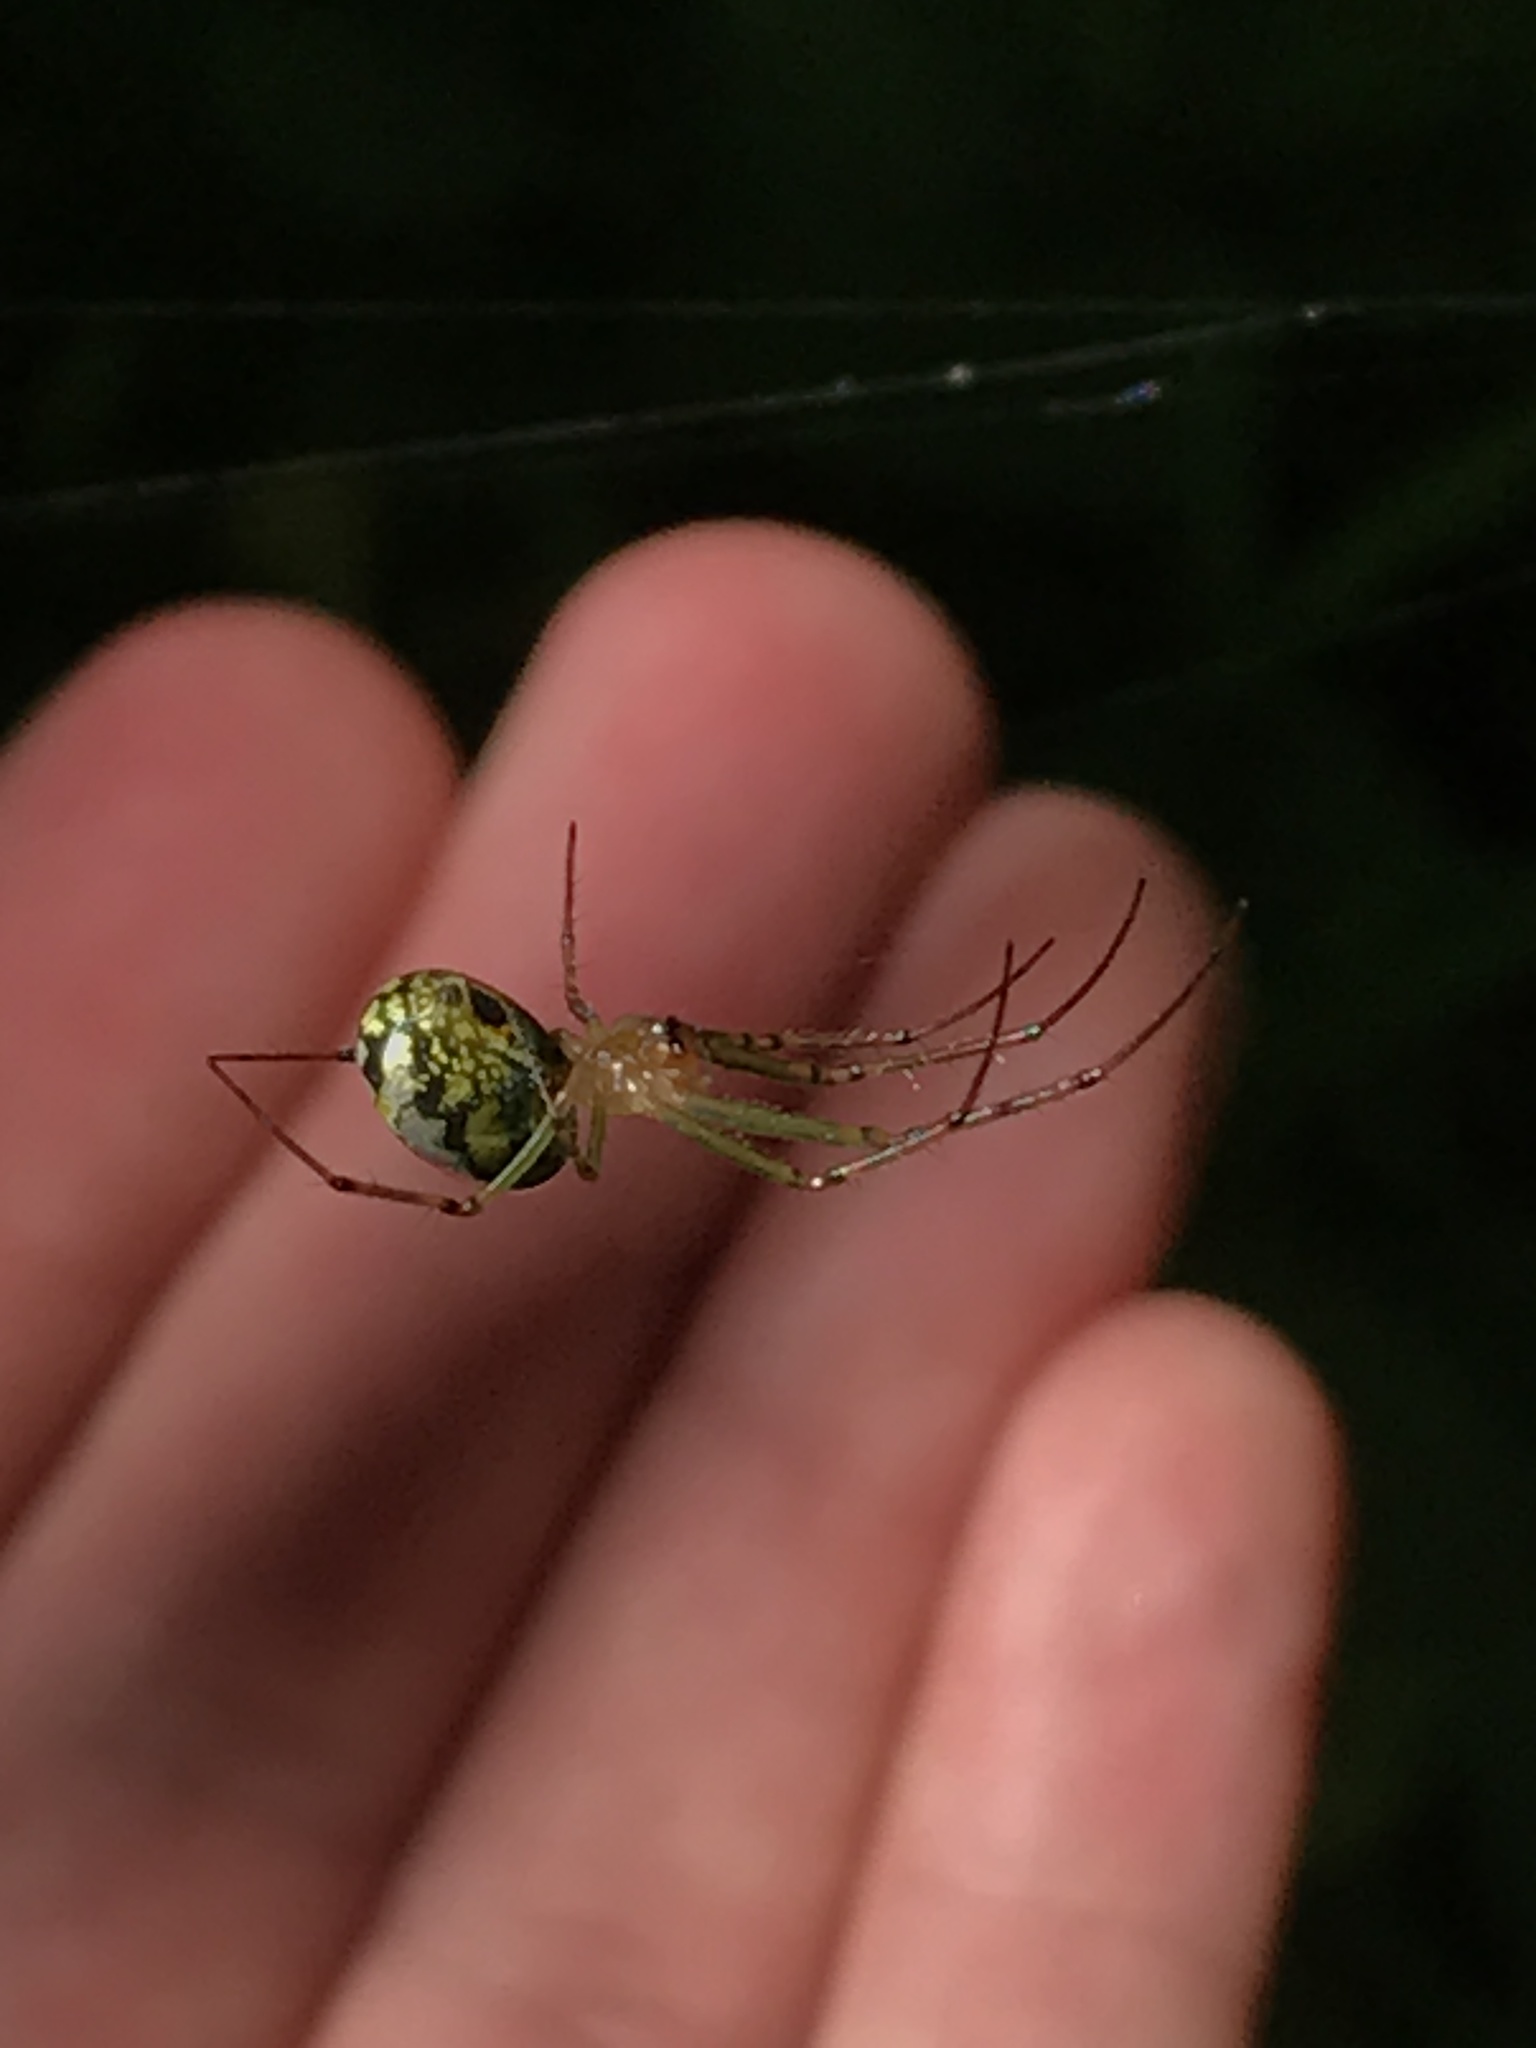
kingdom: Animalia
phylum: Arthropoda
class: Arachnida
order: Araneae
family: Tetragnathidae
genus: Leucauge
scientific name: Leucauge venusta
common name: Longjawed orb weavers
